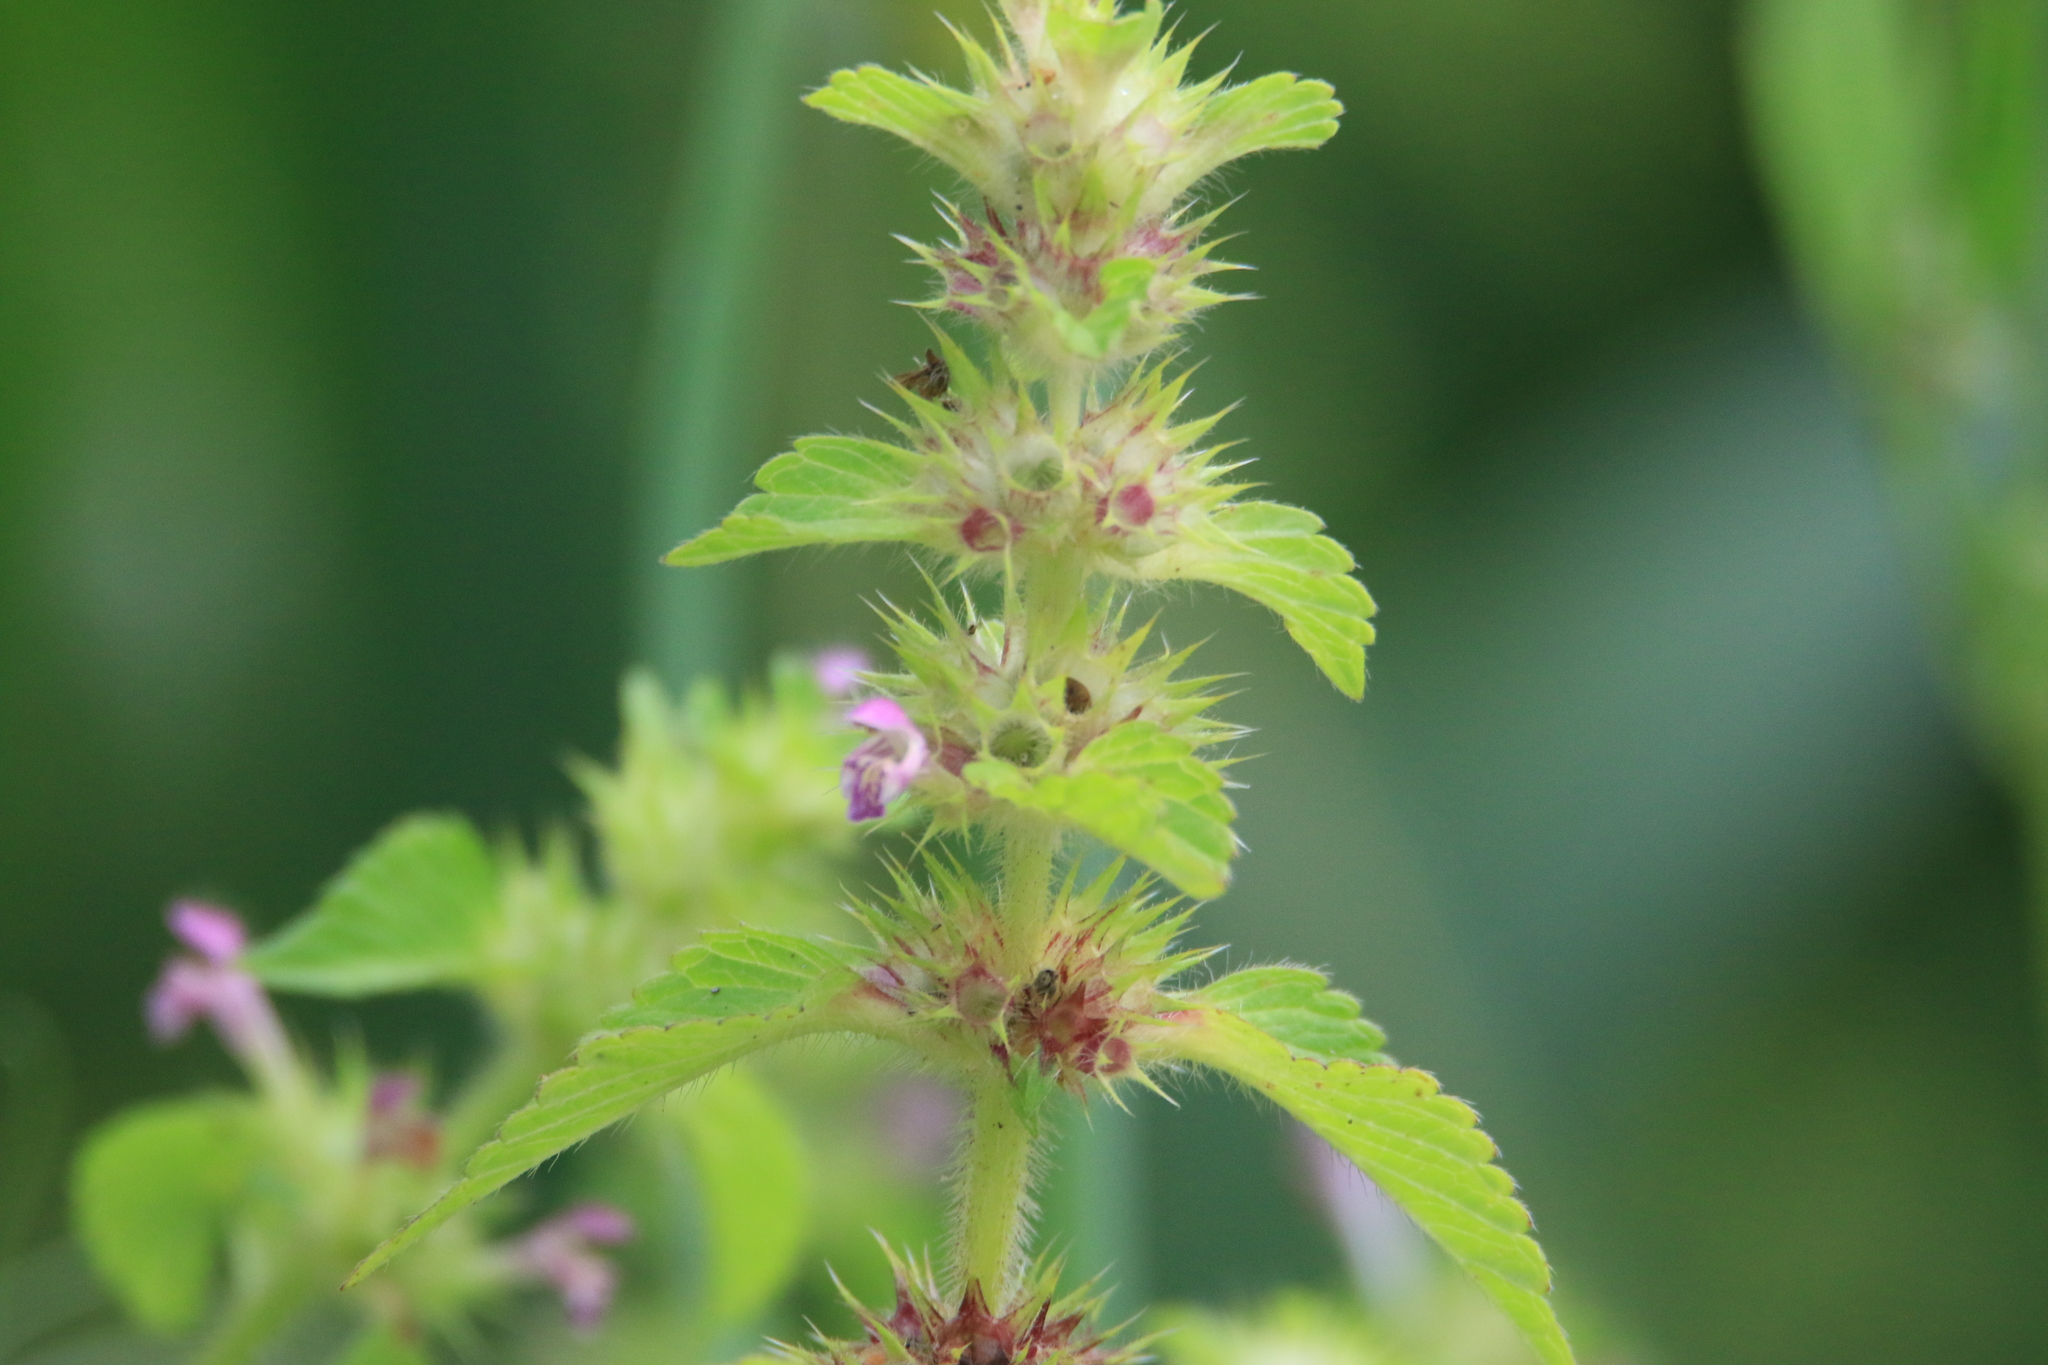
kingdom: Plantae
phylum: Tracheophyta
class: Magnoliopsida
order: Lamiales
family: Lamiaceae
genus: Galeopsis
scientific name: Galeopsis bifida
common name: Bifid hemp-nettle
